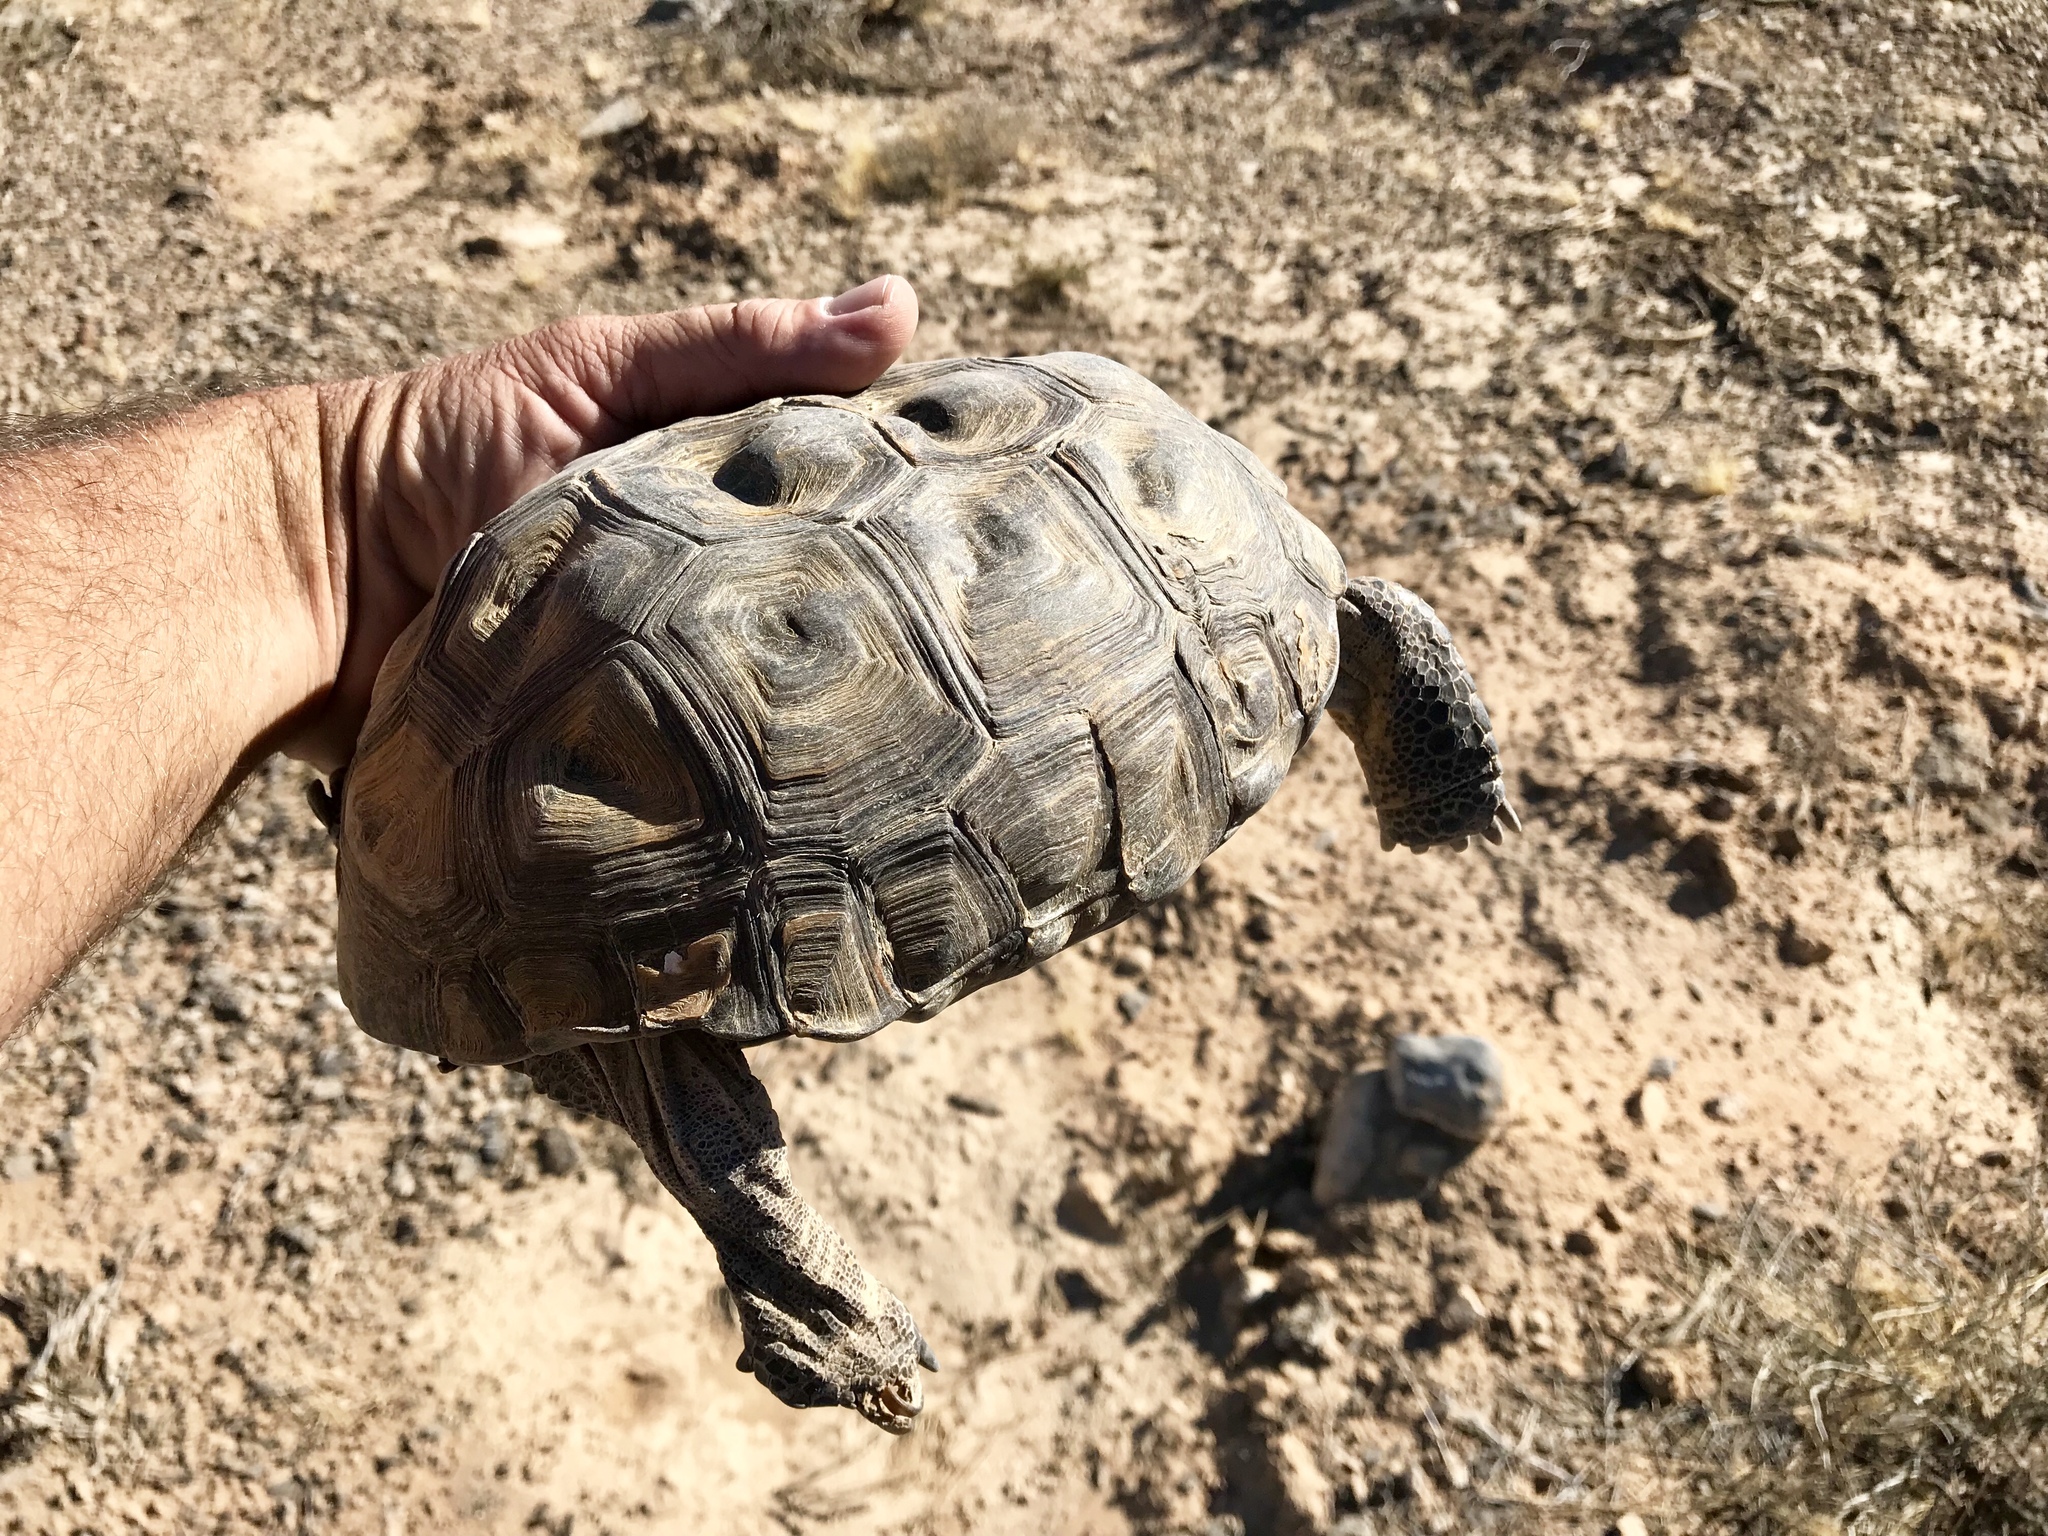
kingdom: Animalia
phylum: Chordata
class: Testudines
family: Testudinidae
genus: Gopherus
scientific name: Gopherus agassizii
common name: Mojave desert tortoise
